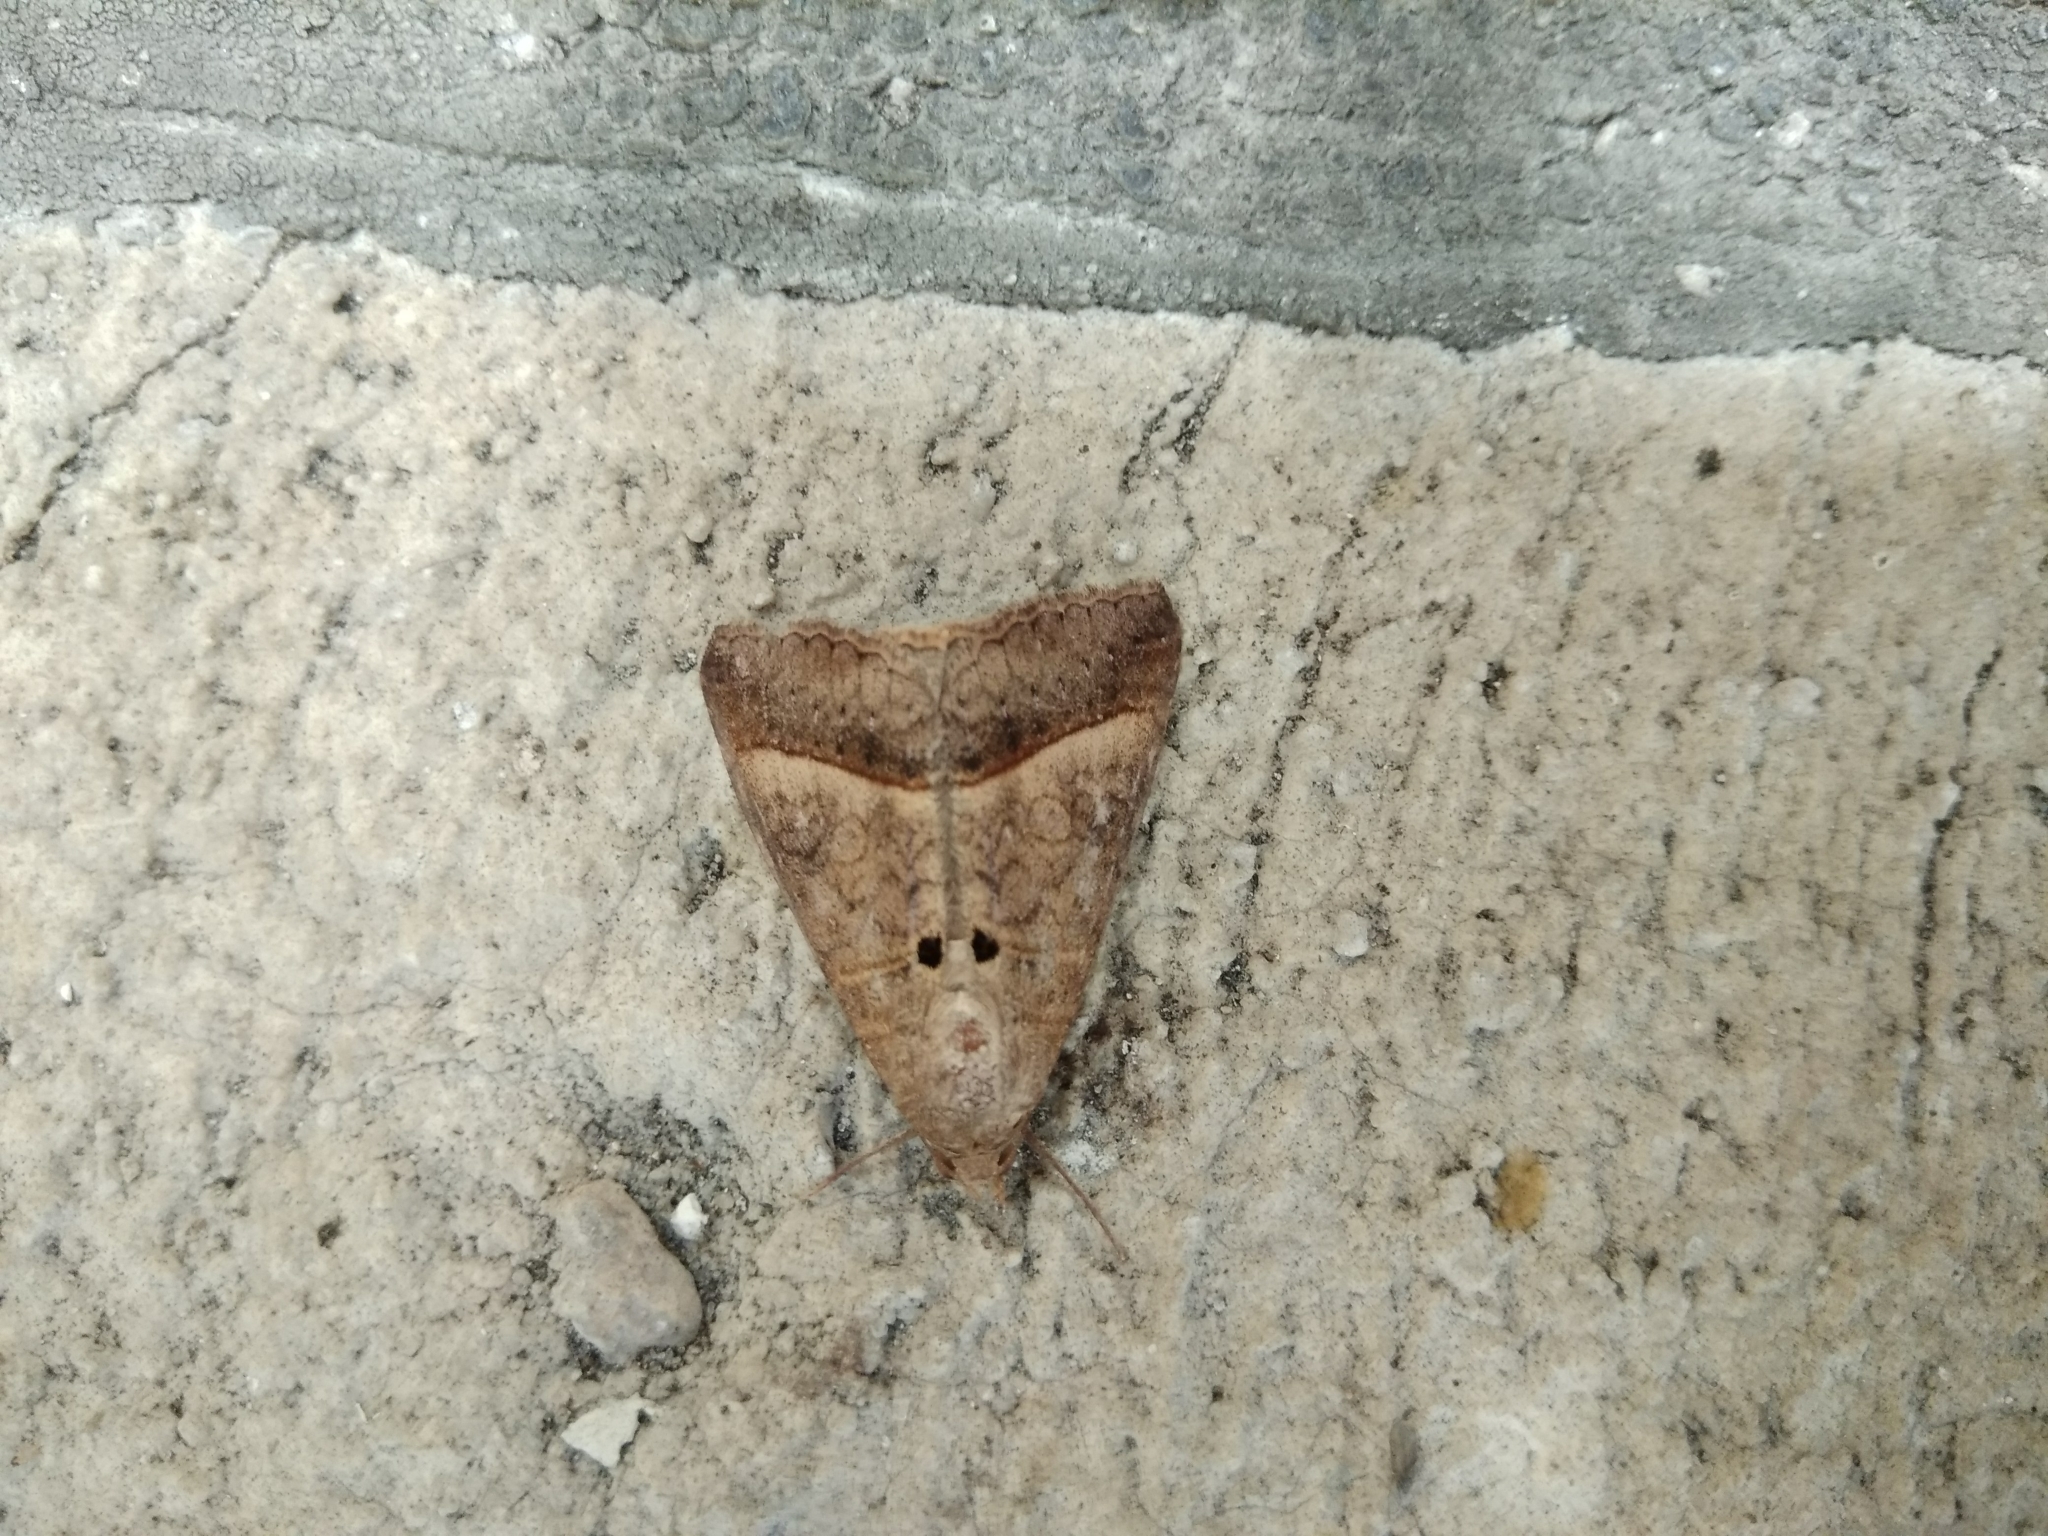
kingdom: Animalia
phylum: Arthropoda
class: Insecta
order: Lepidoptera
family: Erebidae
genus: Mocis
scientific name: Mocis latipes
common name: Striped grass looper
